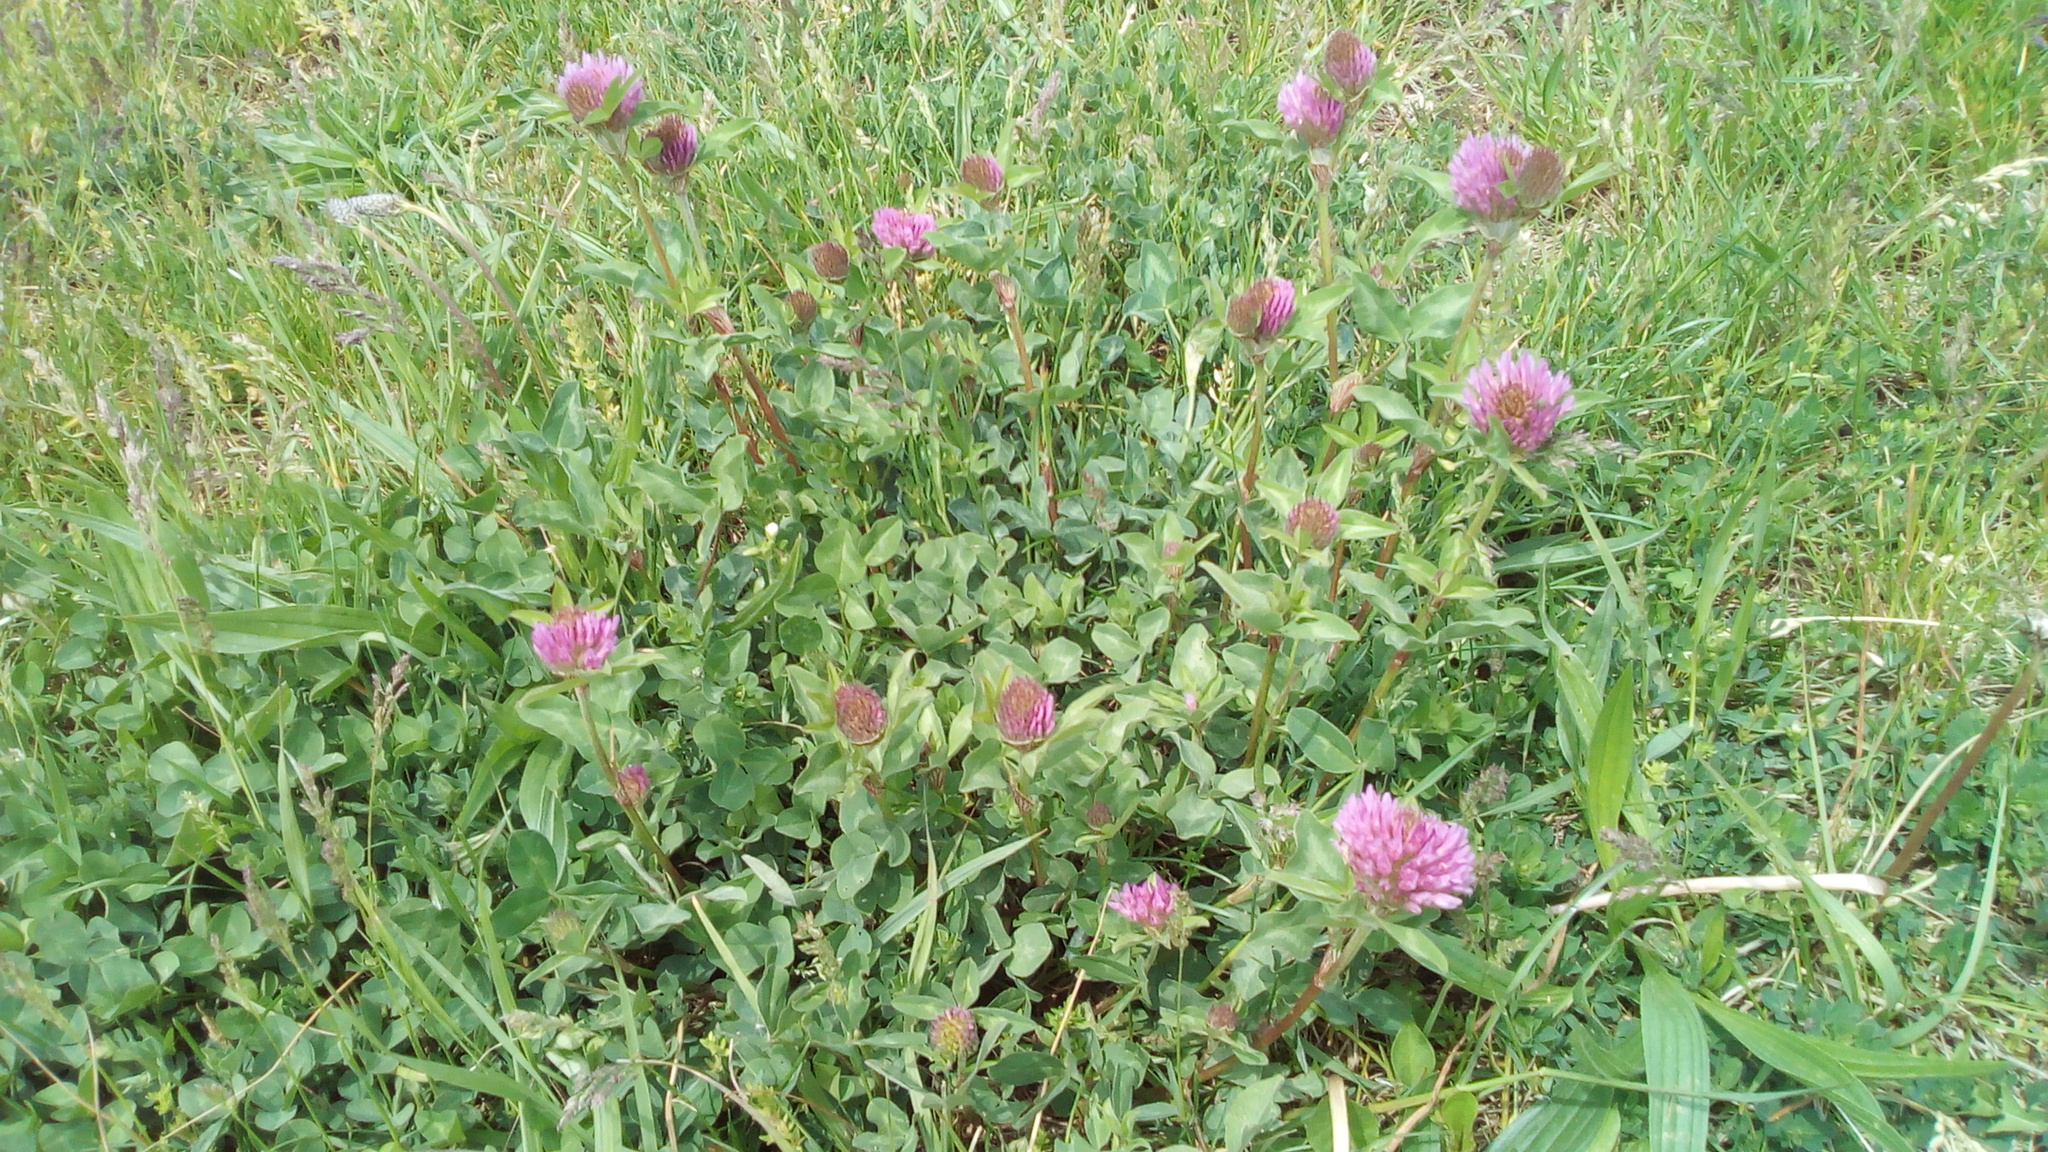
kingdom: Plantae
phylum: Tracheophyta
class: Magnoliopsida
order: Fabales
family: Fabaceae
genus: Trifolium
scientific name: Trifolium pratense
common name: Red clover
